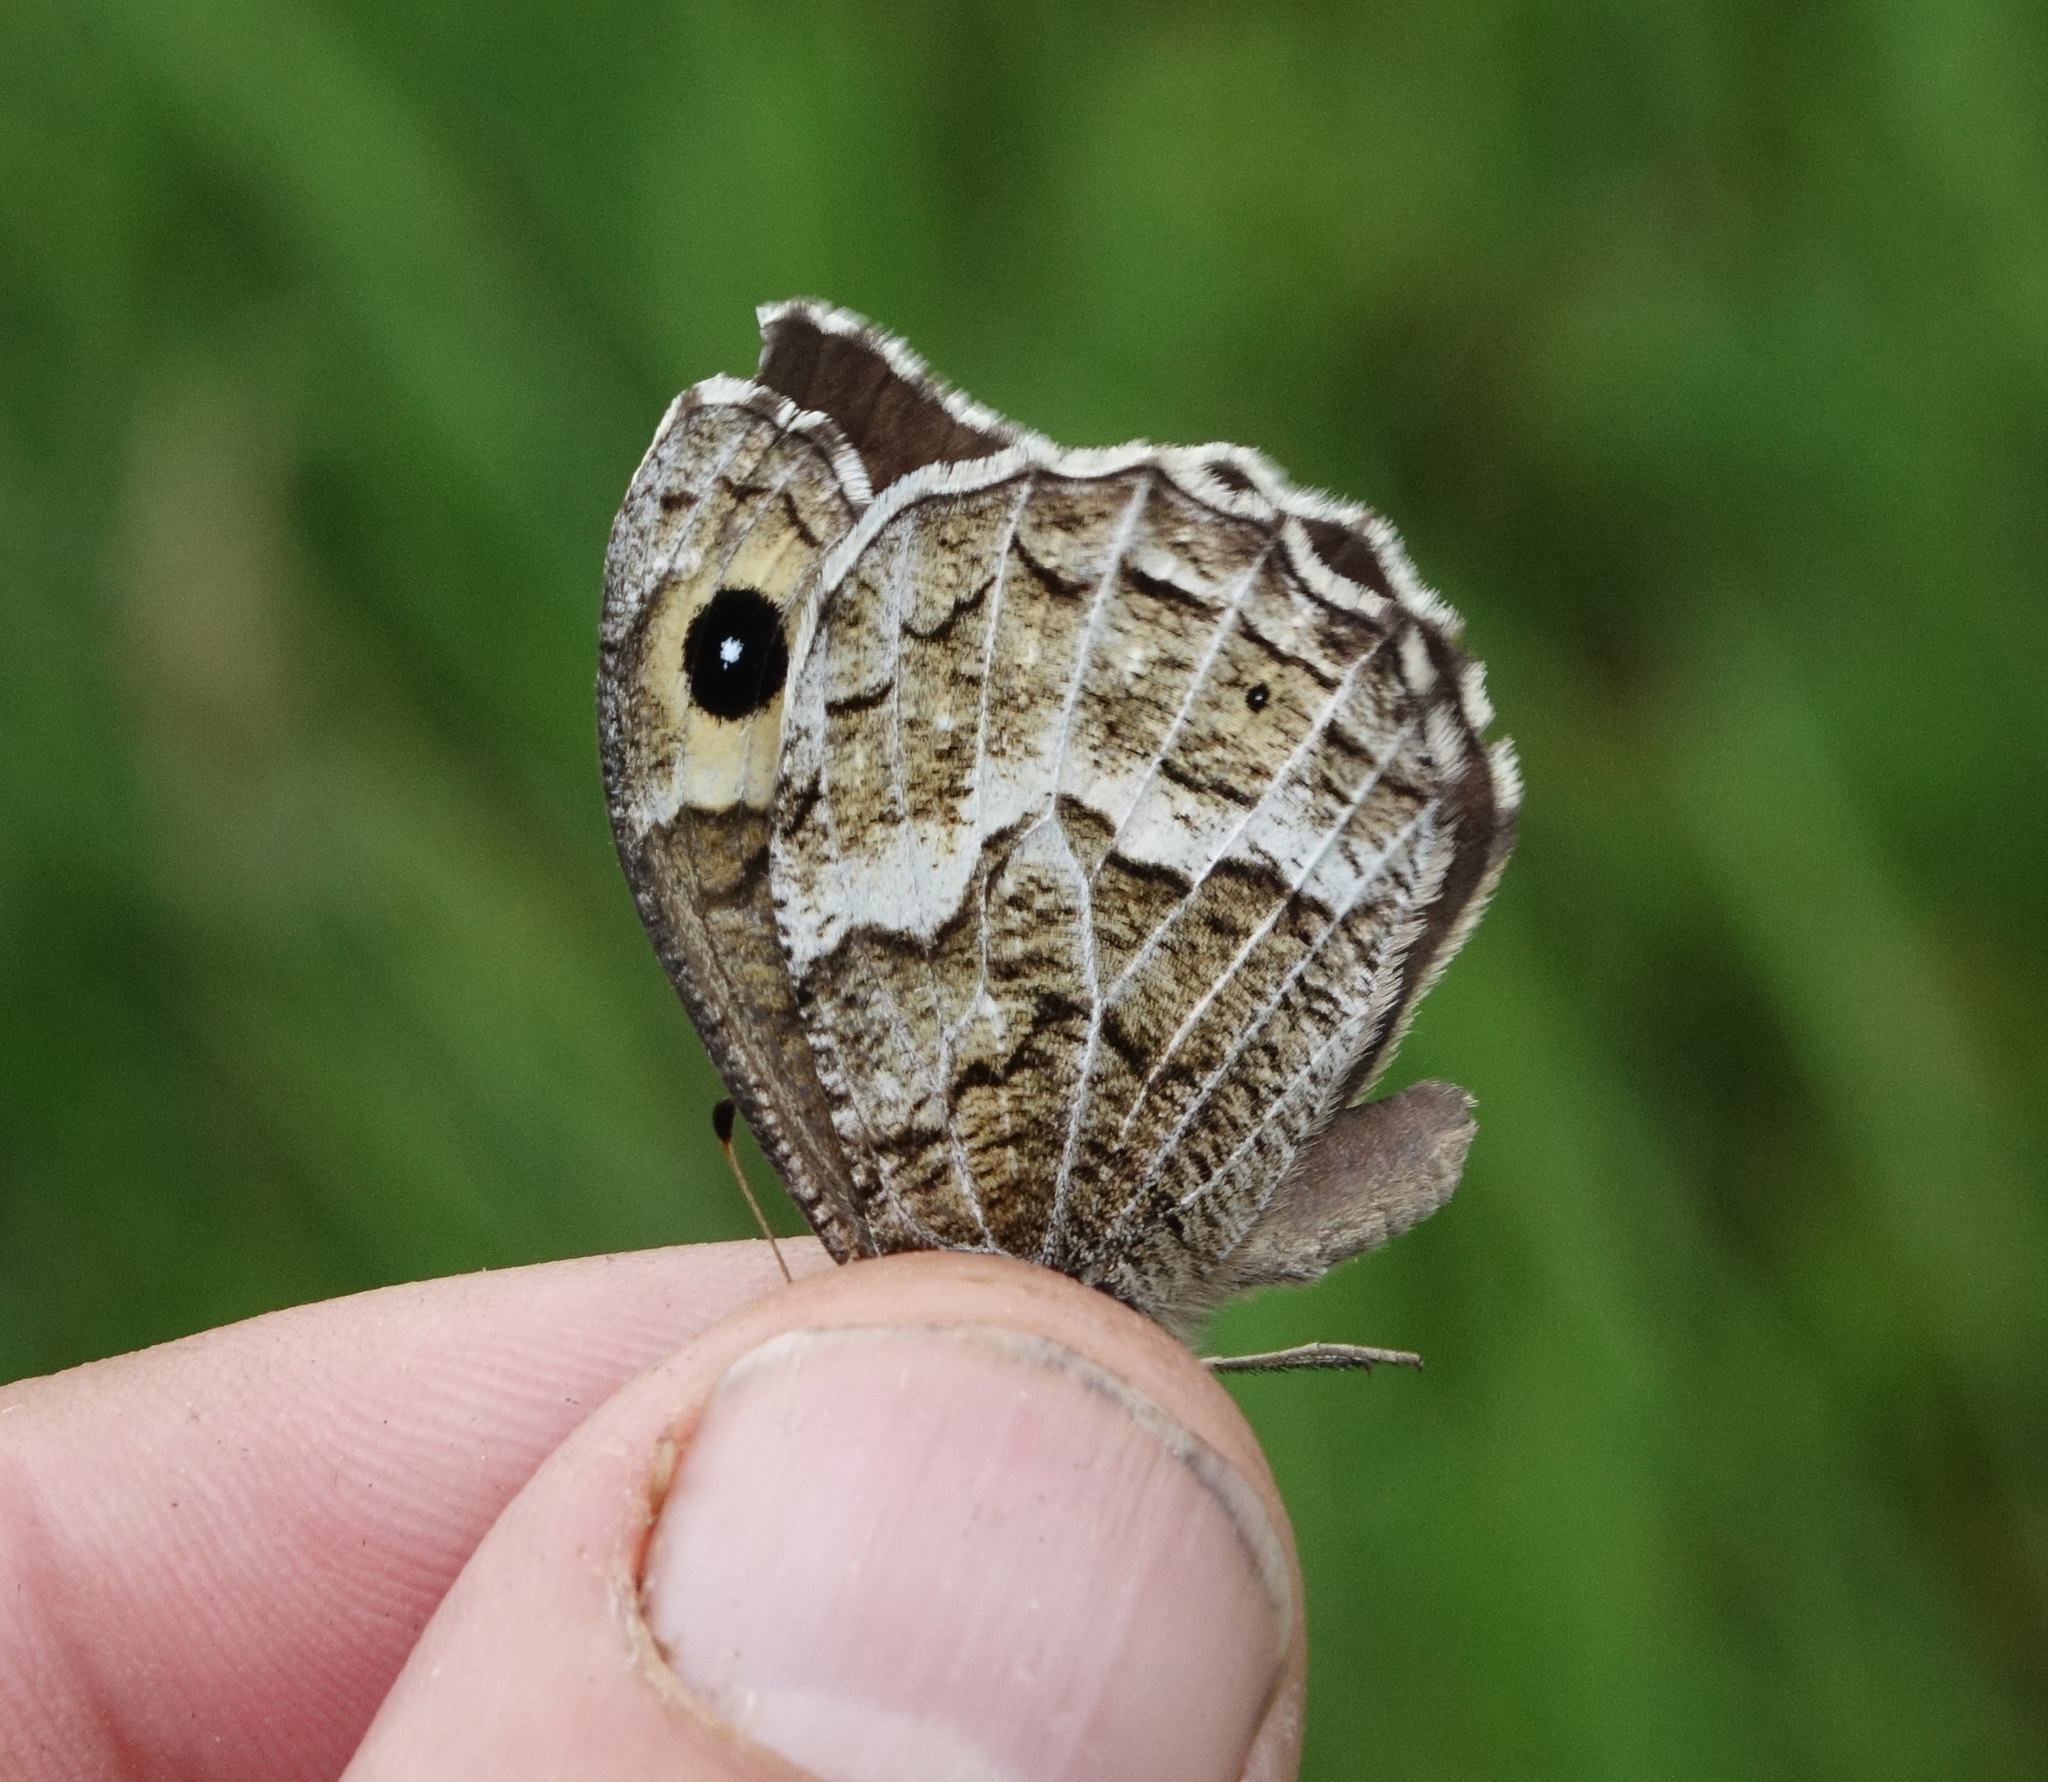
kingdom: Animalia
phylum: Arthropoda
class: Insecta
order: Lepidoptera
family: Nymphalidae
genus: Hipparchia
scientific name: Hipparchia autonoe
